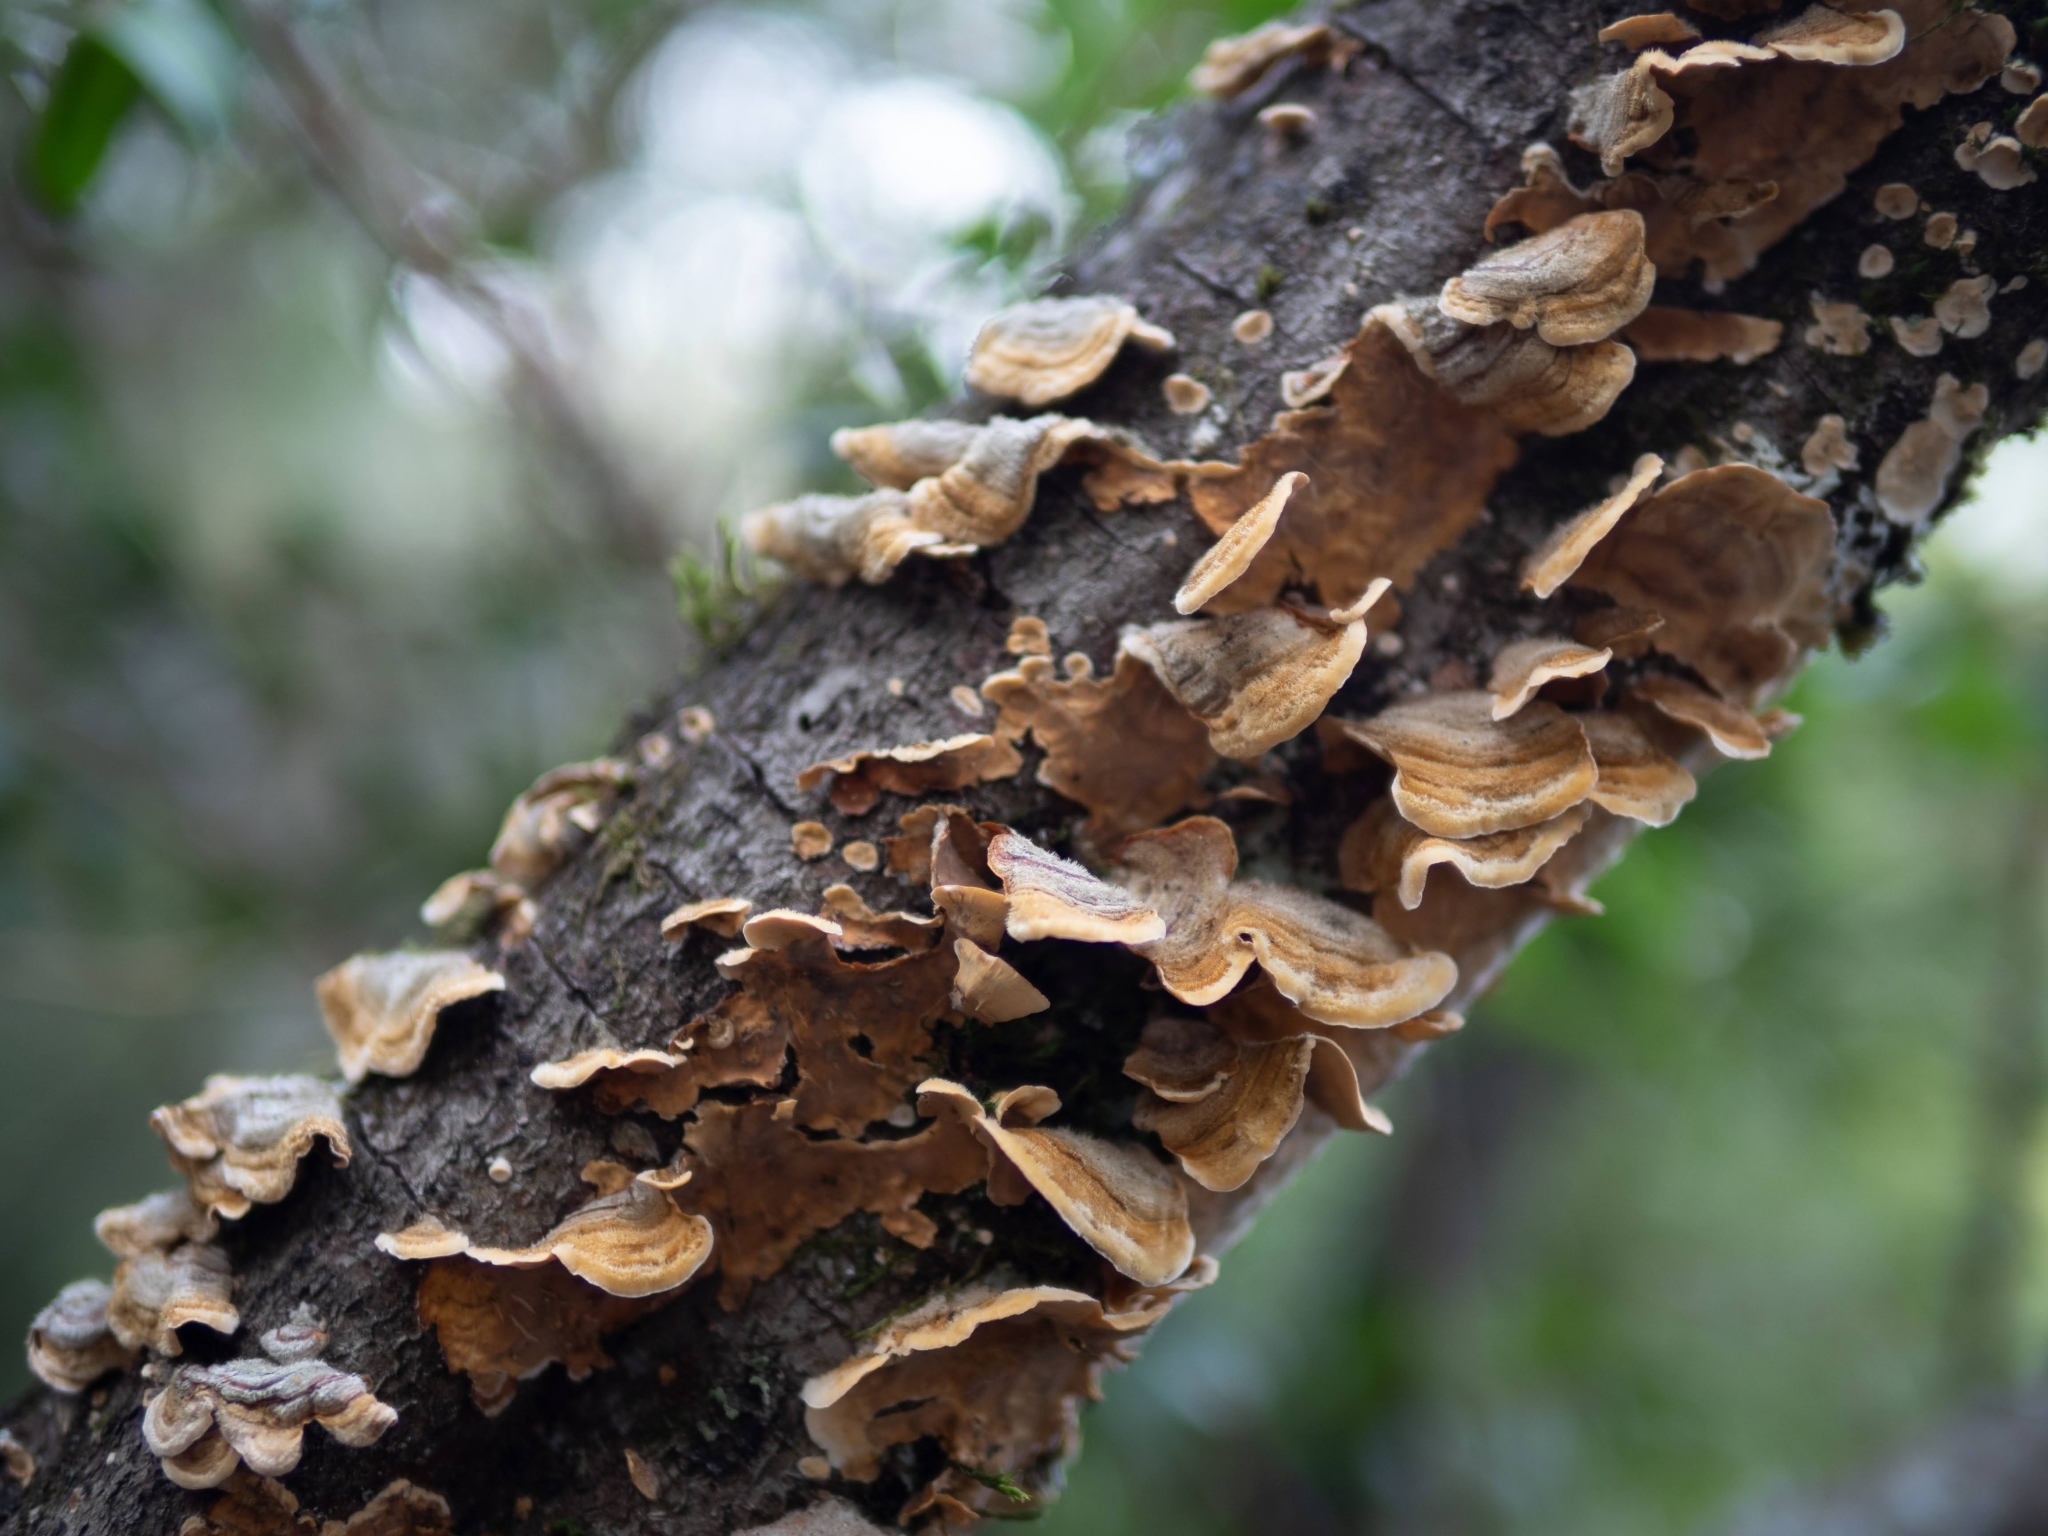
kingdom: Fungi
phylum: Basidiomycota
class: Agaricomycetes
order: Russulales
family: Stereaceae
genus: Stereum
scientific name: Stereum hirsutum
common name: Hairy curtain crust
